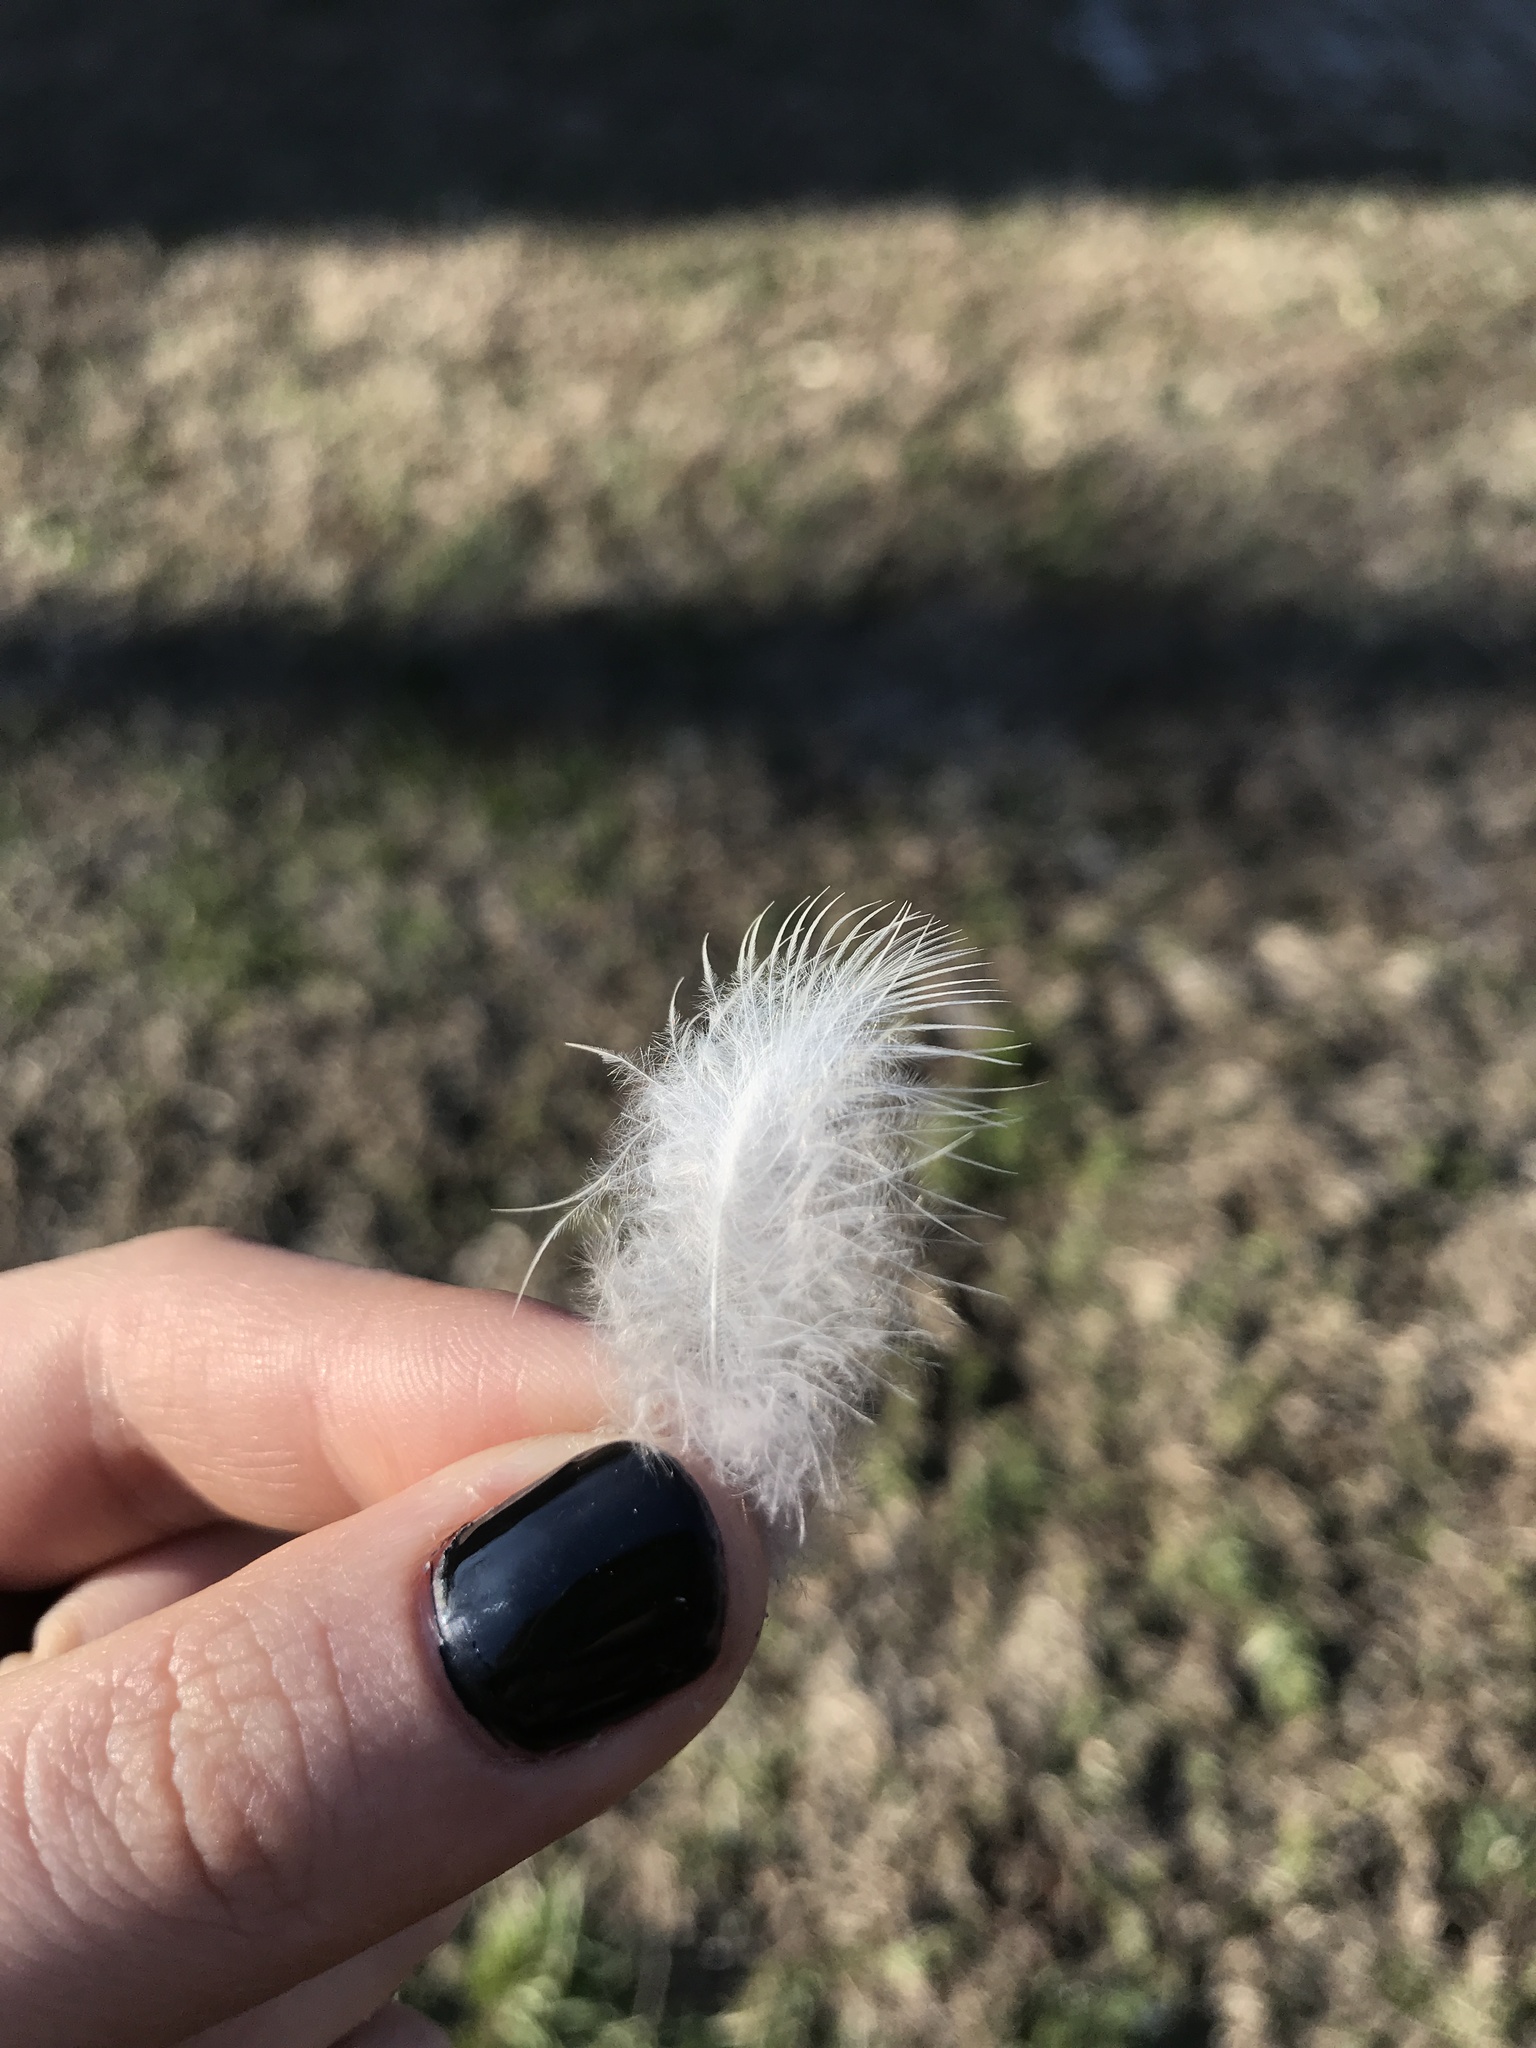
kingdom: Animalia
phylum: Chordata
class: Aves
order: Columbiformes
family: Columbidae
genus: Zenaida
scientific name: Zenaida macroura
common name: Mourning dove
